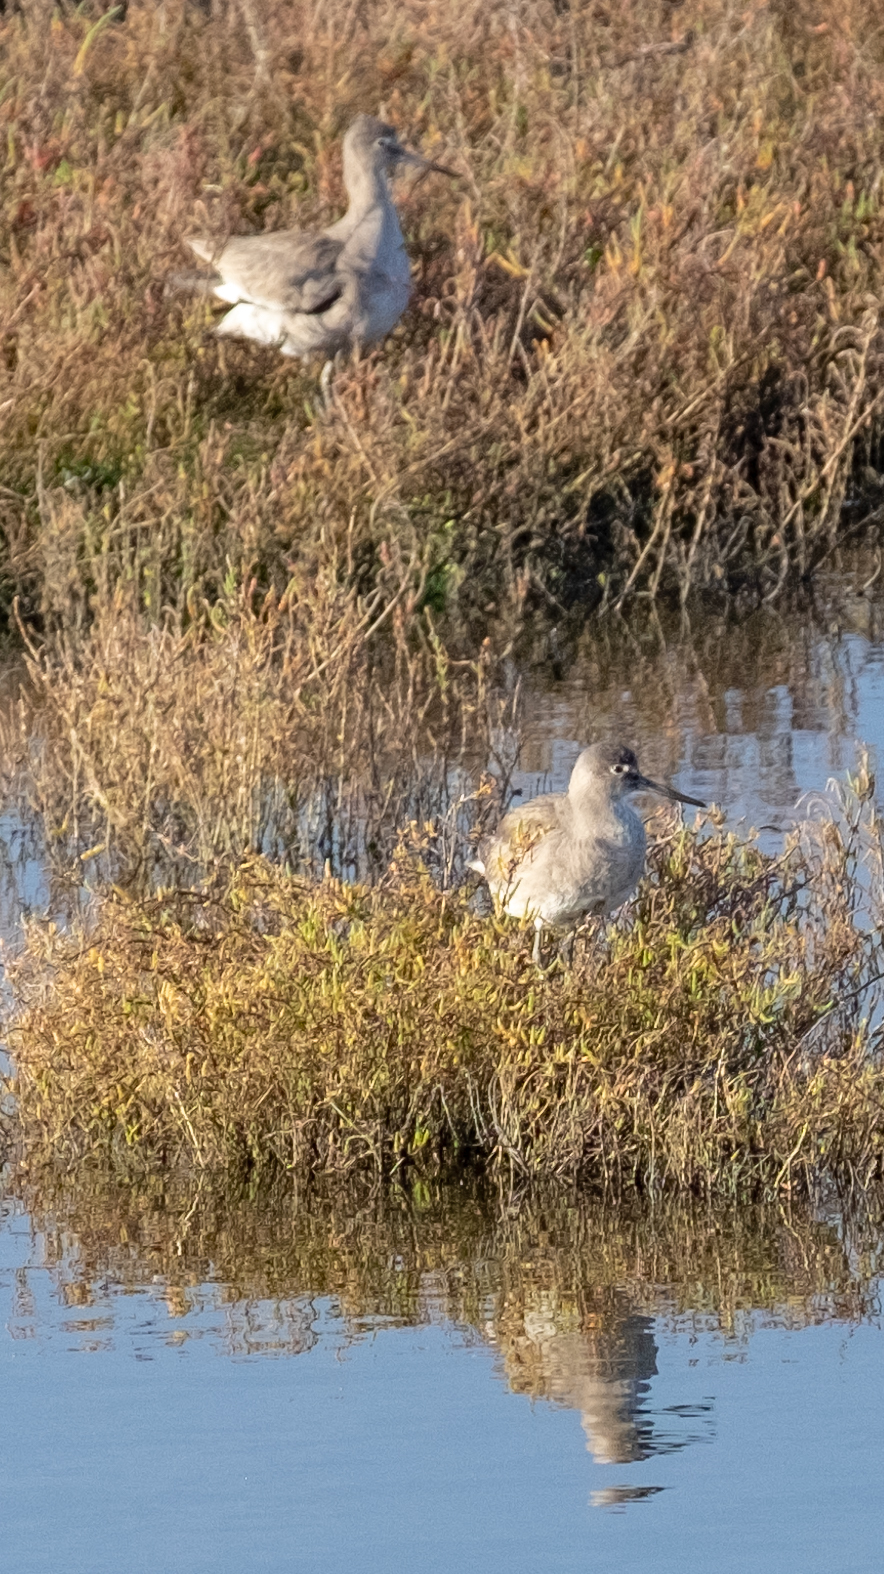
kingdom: Animalia
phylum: Chordata
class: Aves
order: Charadriiformes
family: Scolopacidae
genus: Tringa
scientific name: Tringa semipalmata
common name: Willet
